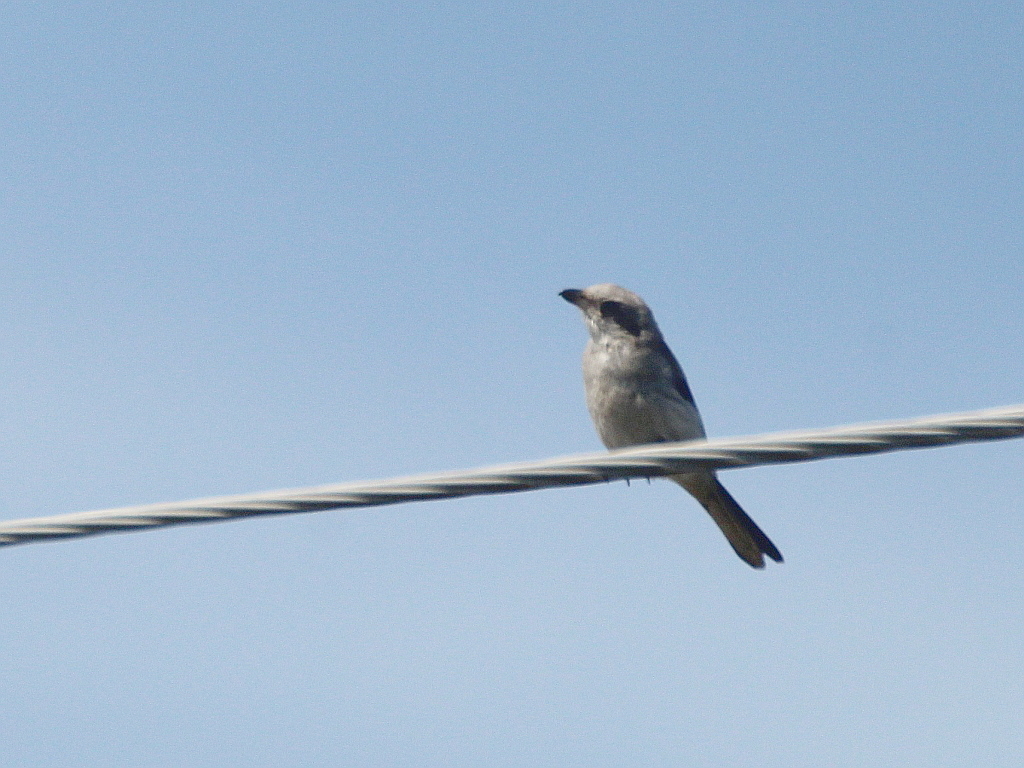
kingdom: Animalia
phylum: Chordata
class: Aves
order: Passeriformes
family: Laniidae
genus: Lanius
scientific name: Lanius excubitor
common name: Great grey shrike
